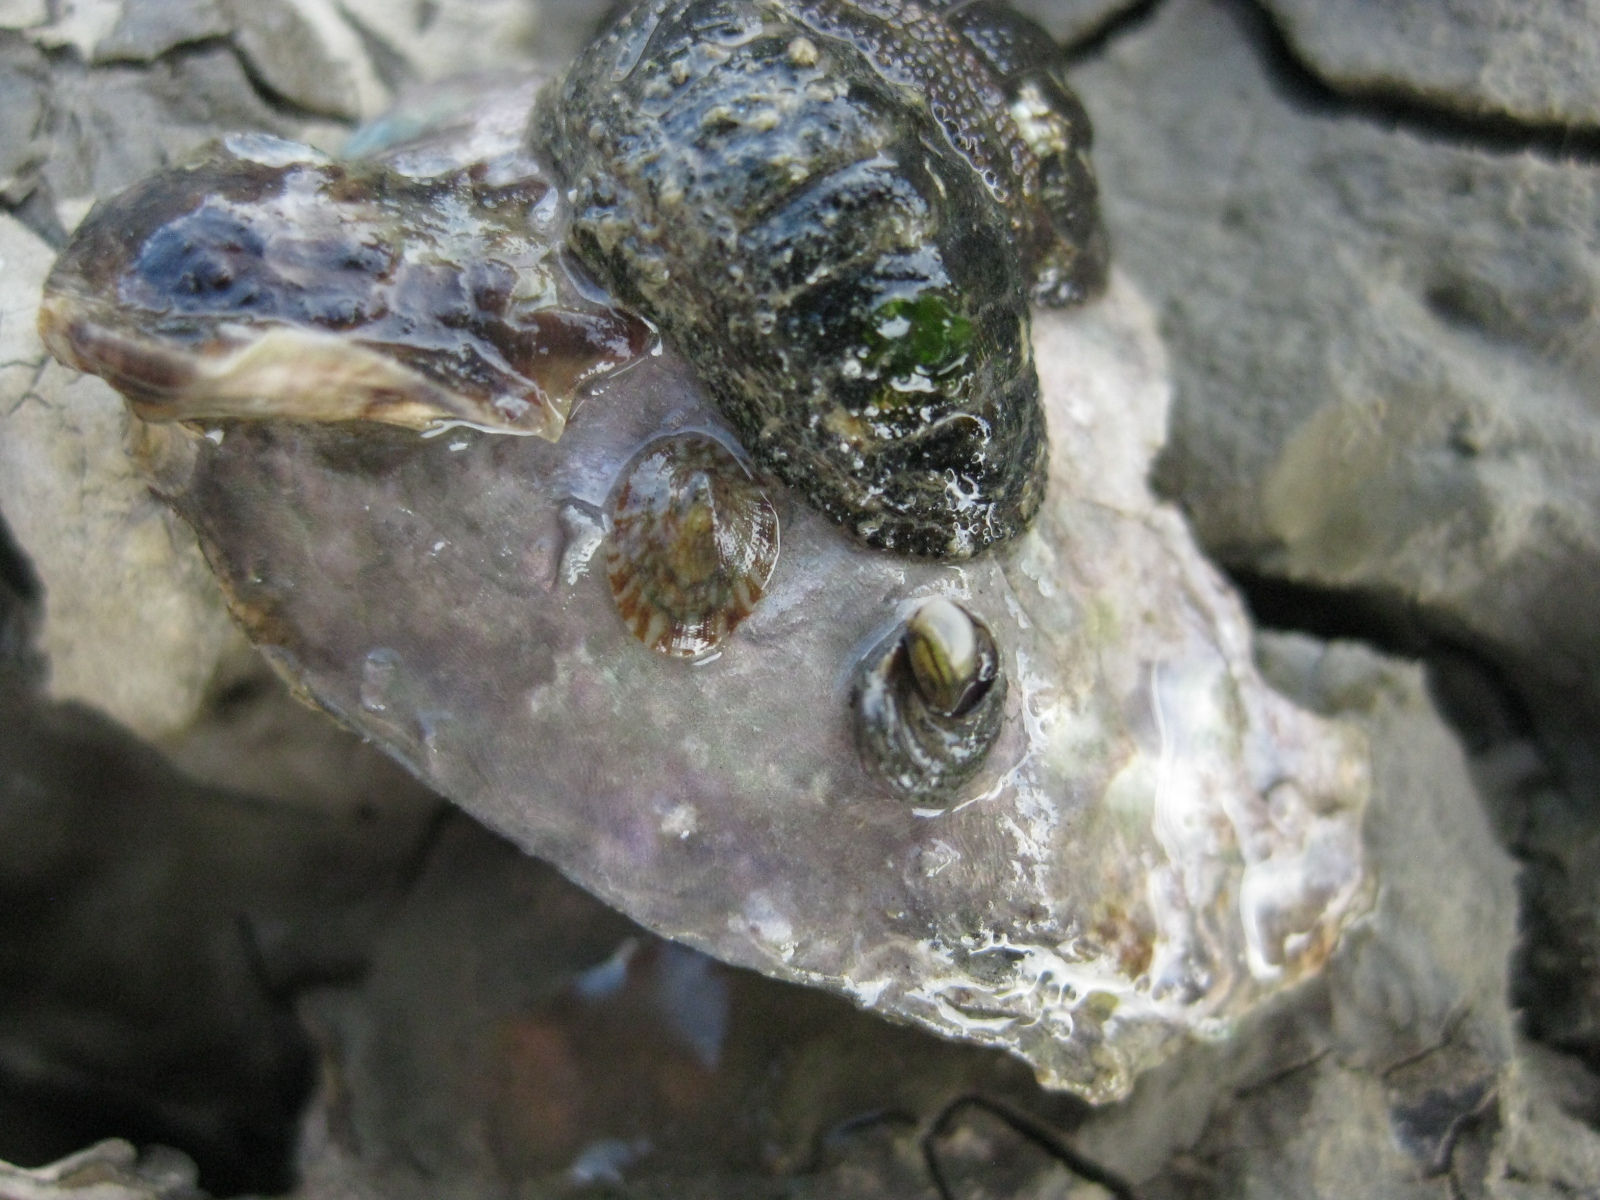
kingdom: Animalia
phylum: Mollusca
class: Gastropoda
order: Littorinimorpha
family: Littorinidae
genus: Risellopsis
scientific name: Risellopsis varia
